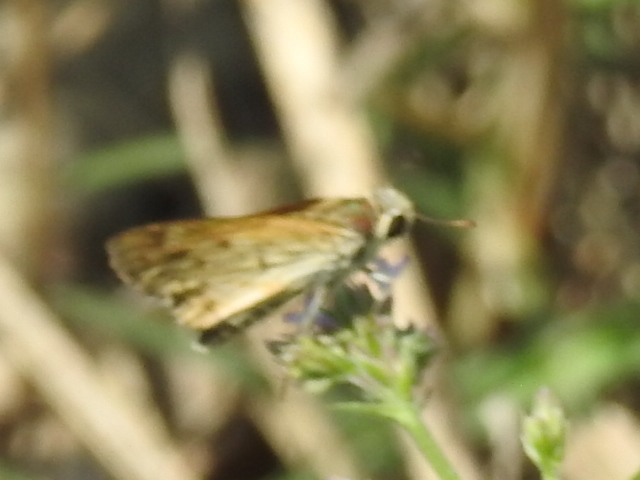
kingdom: Animalia
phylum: Arthropoda
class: Insecta
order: Lepidoptera
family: Hesperiidae
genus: Hylephila
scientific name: Hylephila phyleus
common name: Fiery skipper
